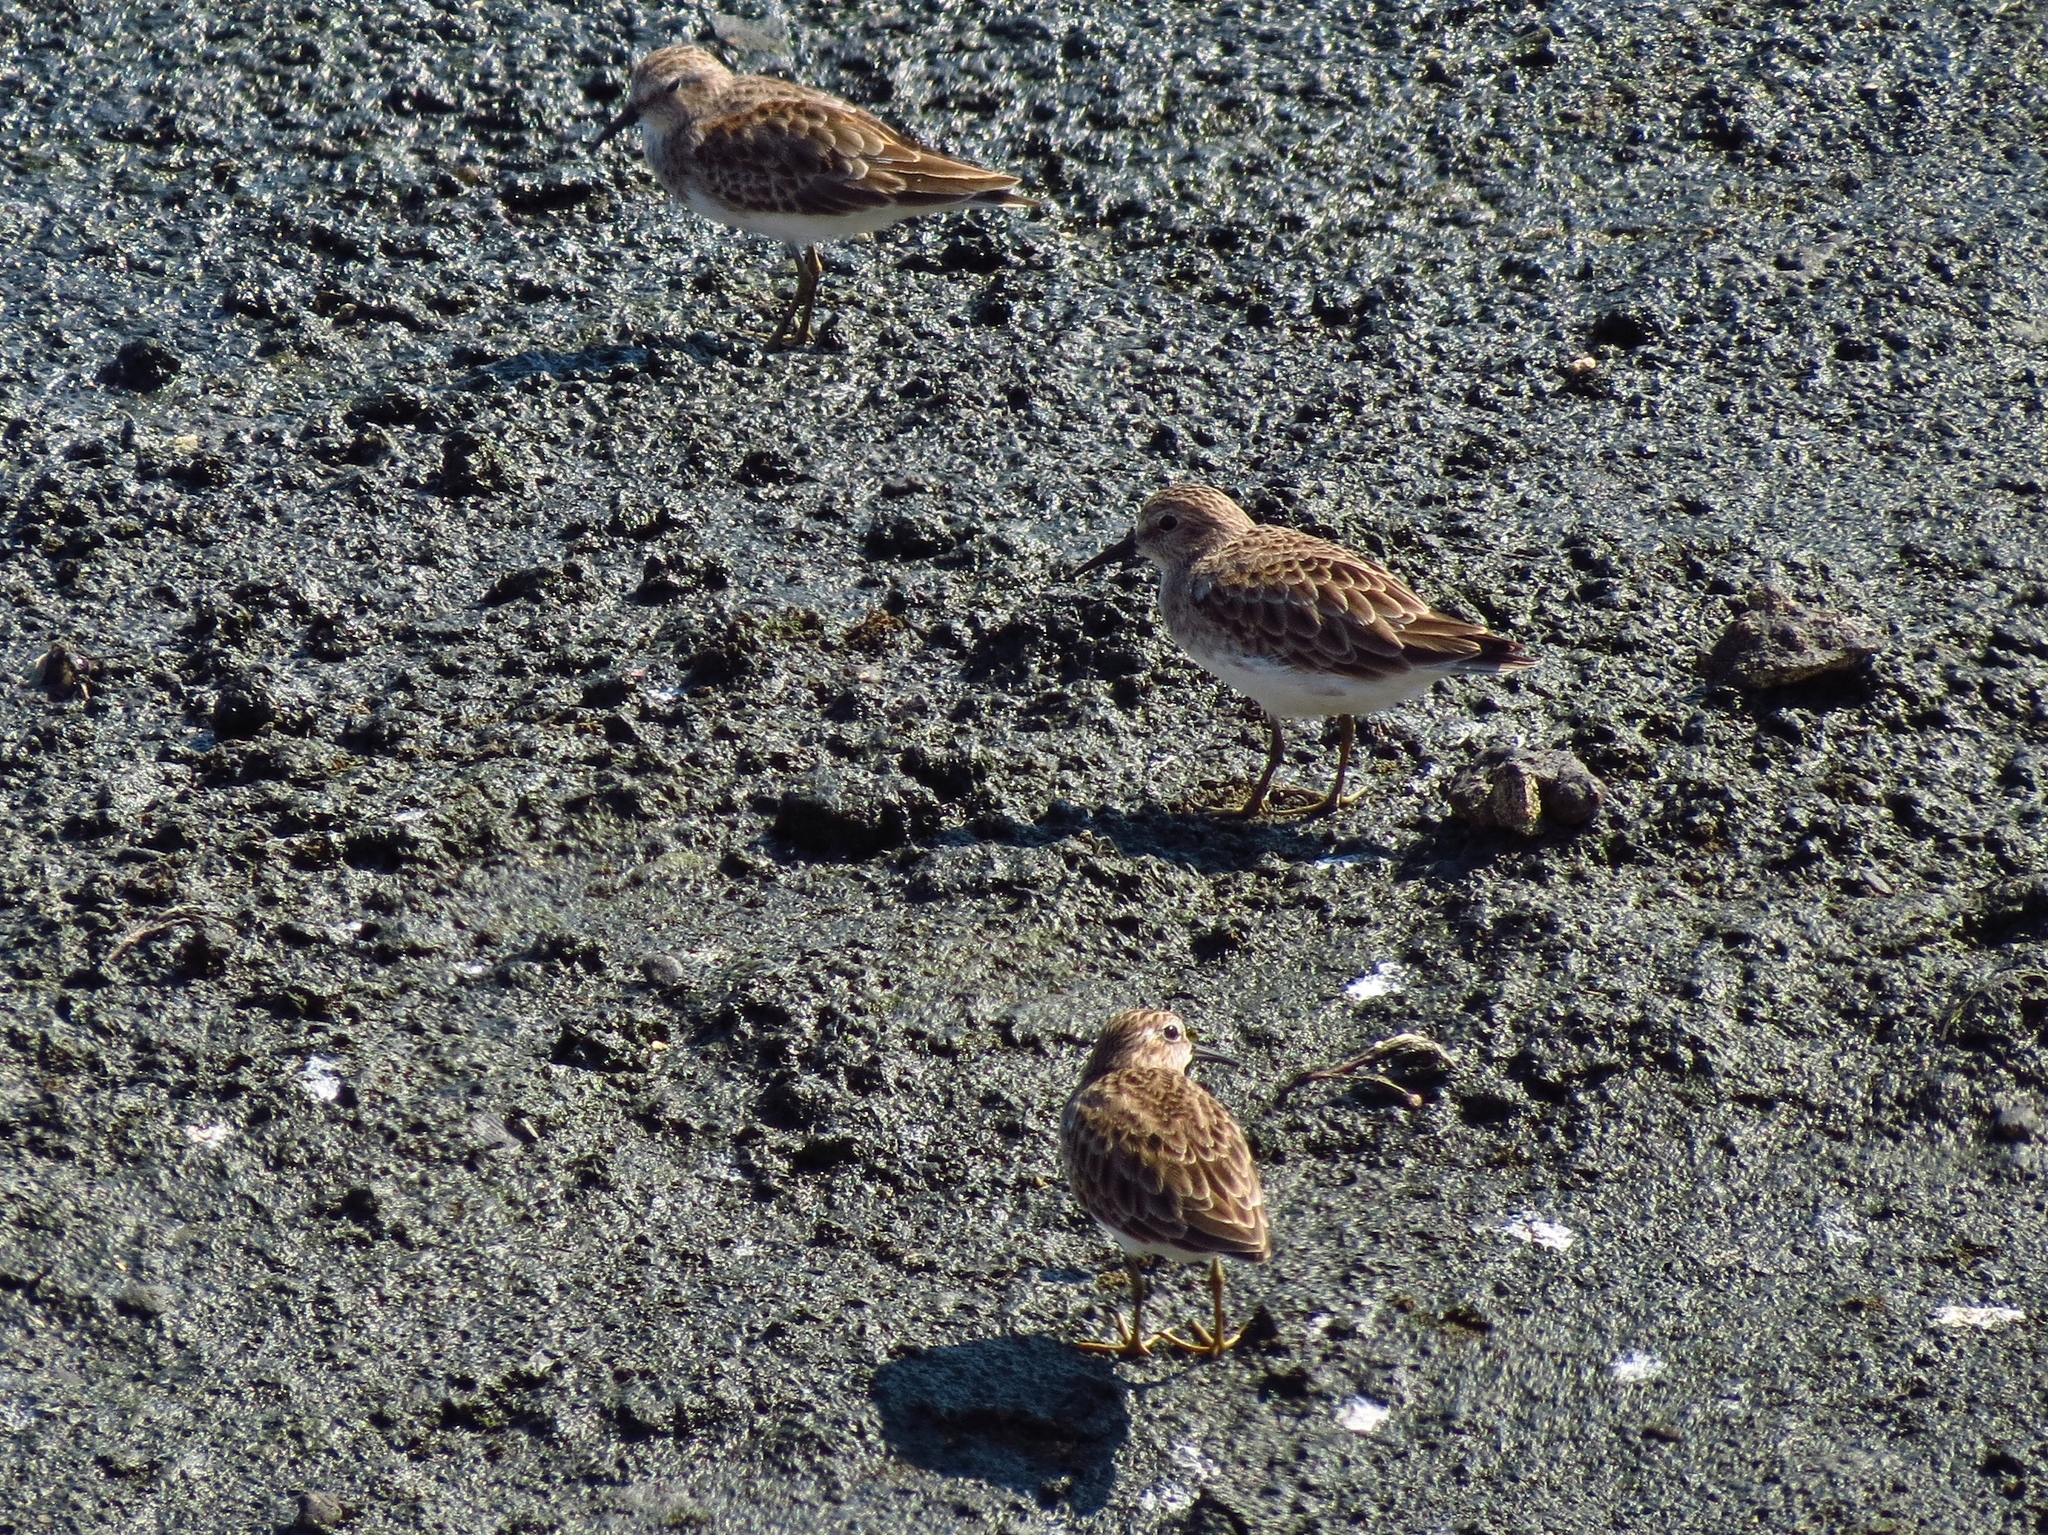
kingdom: Animalia
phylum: Chordata
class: Aves
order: Charadriiformes
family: Scolopacidae
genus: Calidris
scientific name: Calidris minutilla
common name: Least sandpiper
